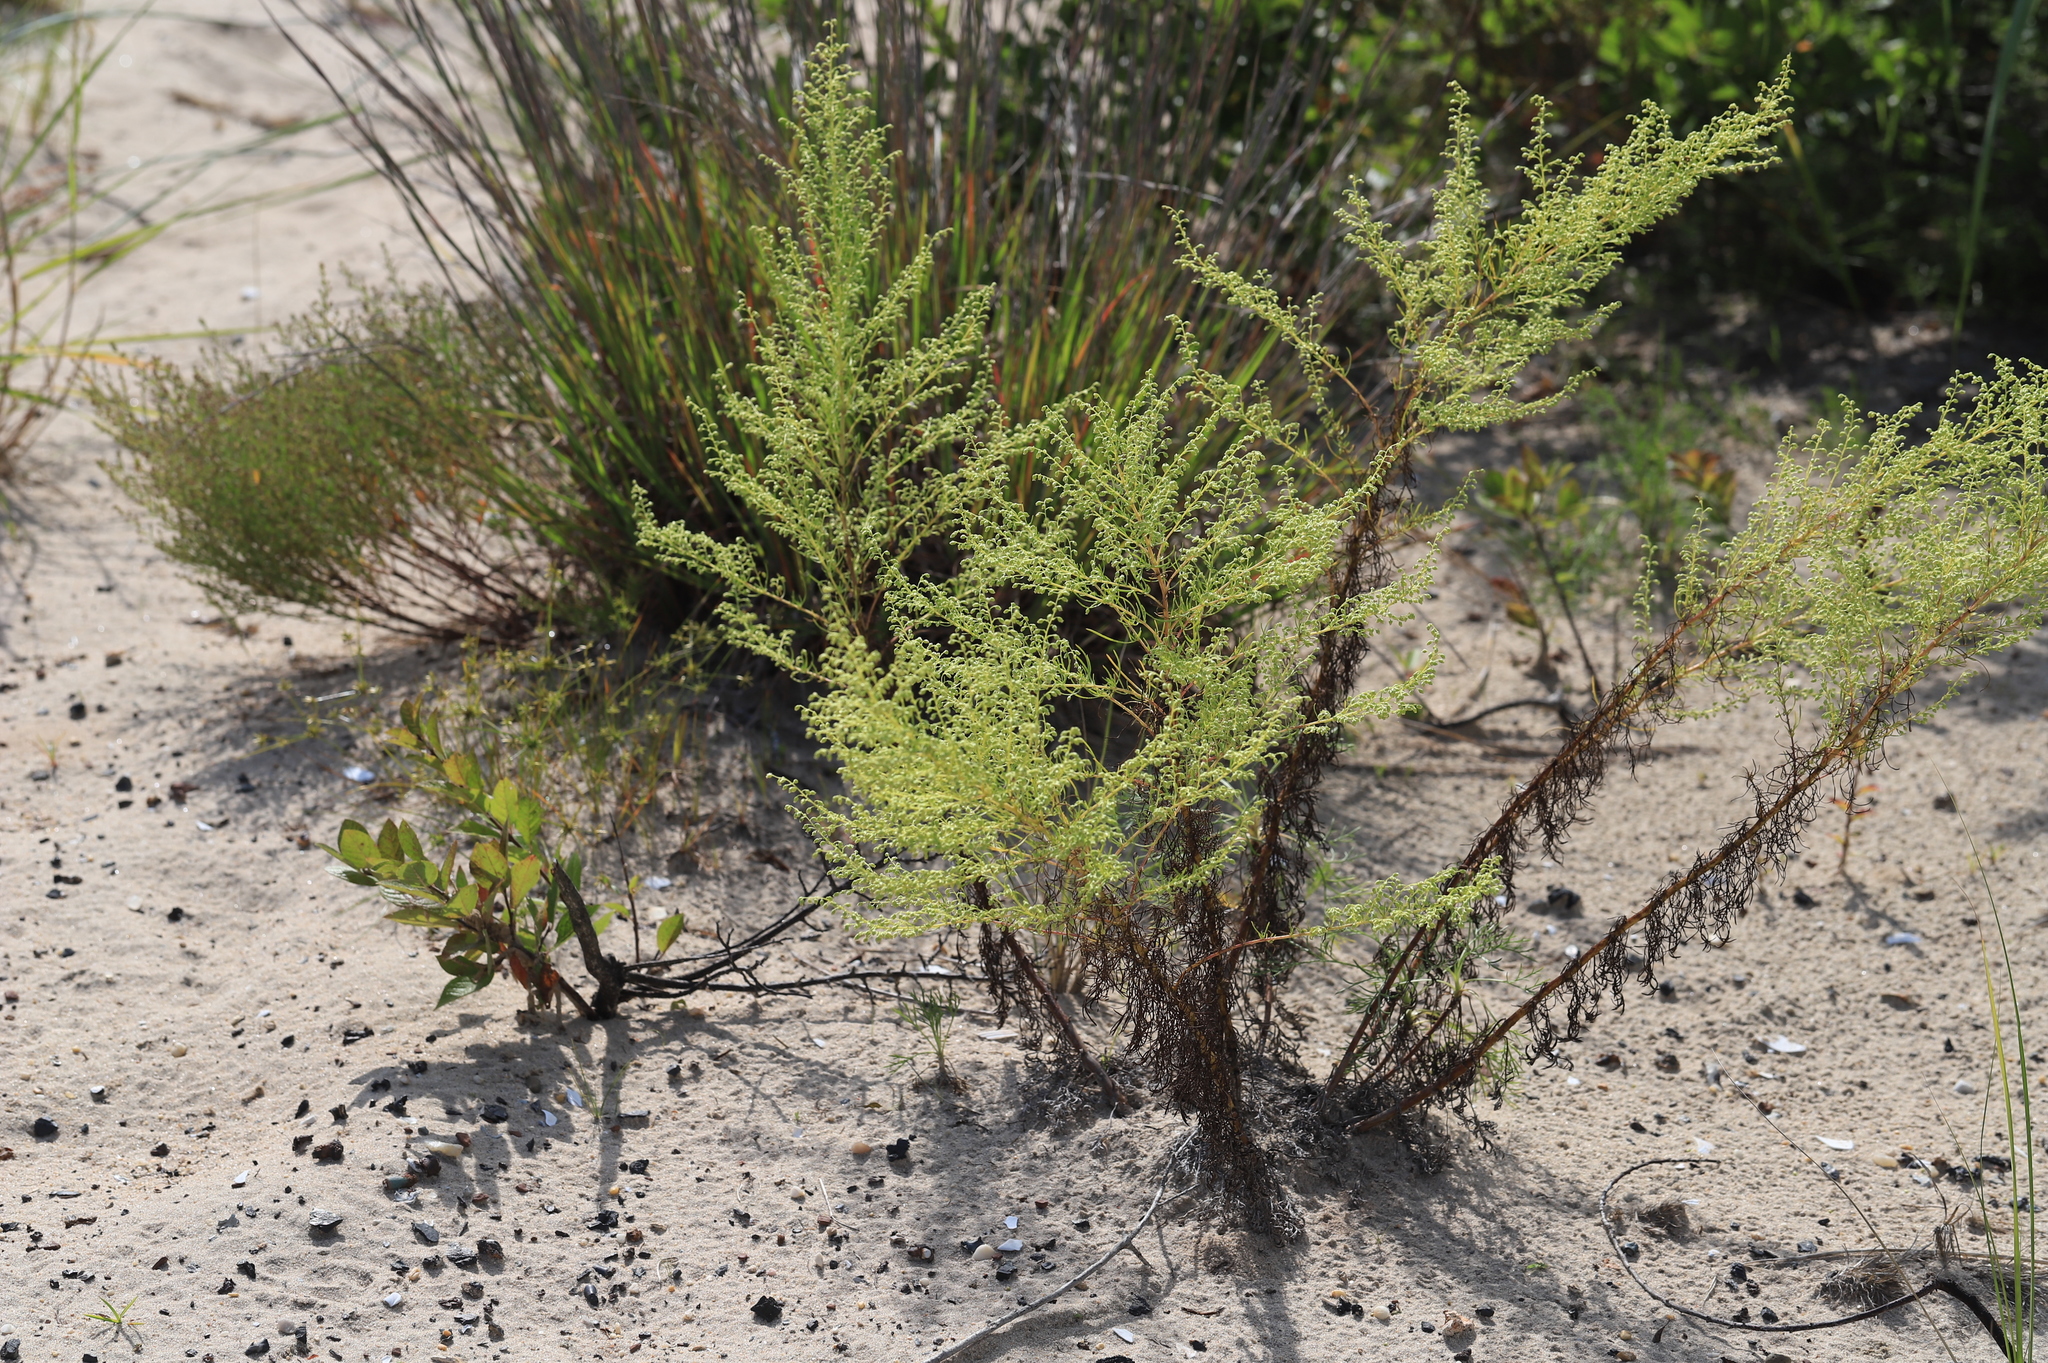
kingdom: Plantae
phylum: Tracheophyta
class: Magnoliopsida
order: Asterales
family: Asteraceae
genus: Artemisia
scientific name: Artemisia campestris
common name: Field wormwood
